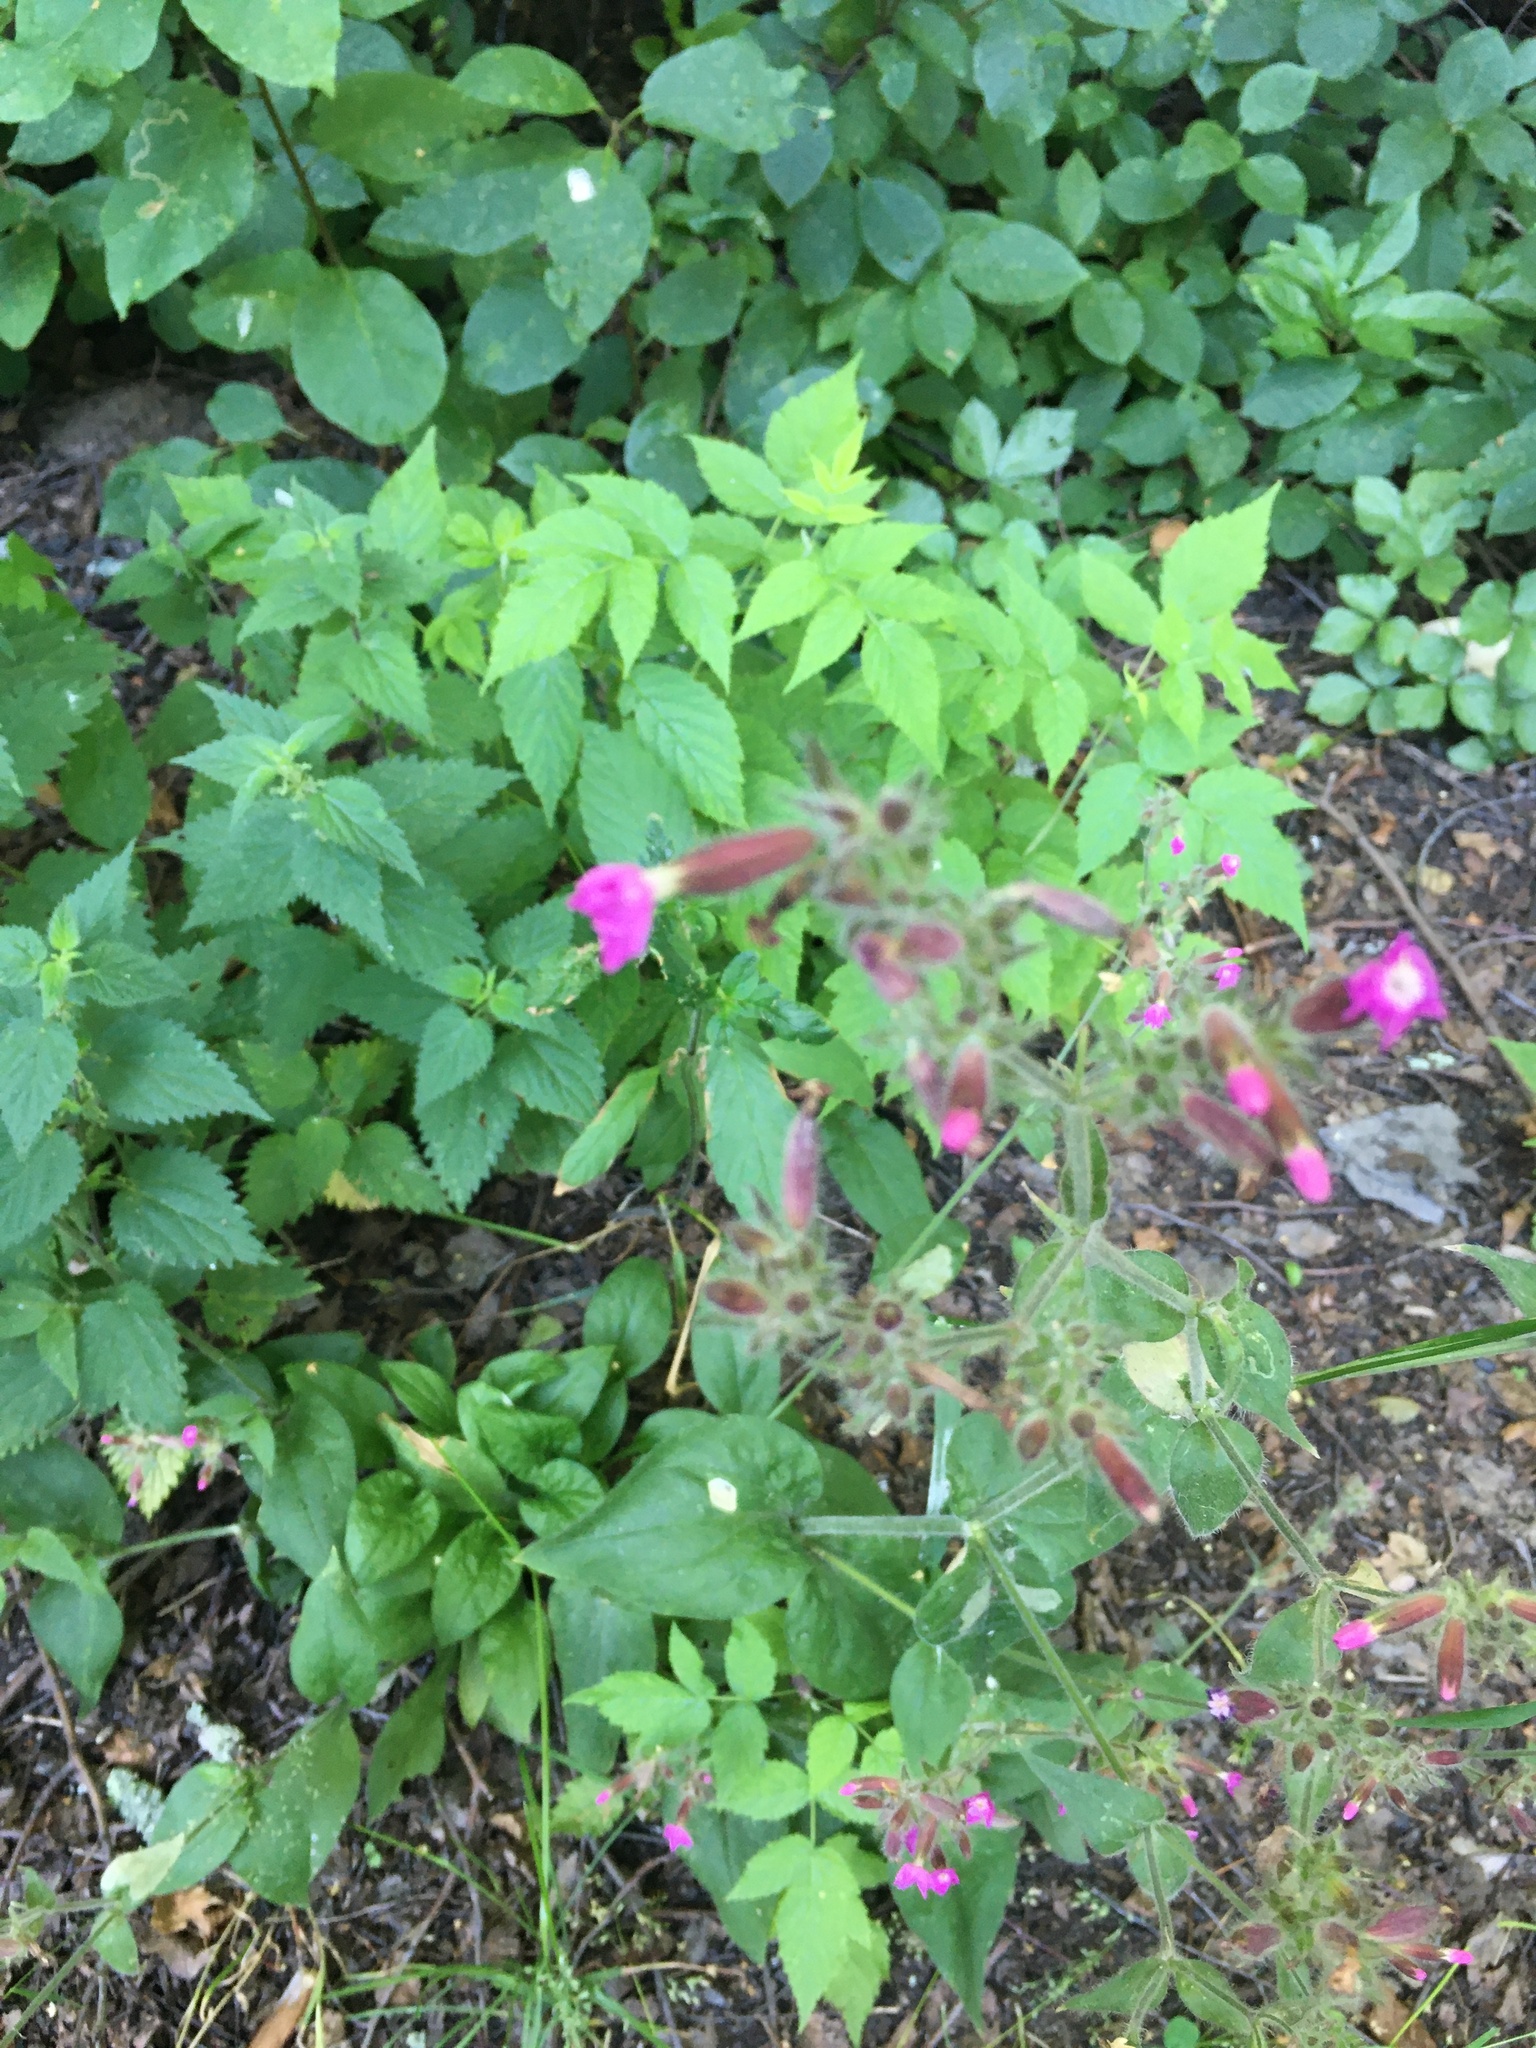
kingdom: Plantae
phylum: Tracheophyta
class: Magnoliopsida
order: Caryophyllales
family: Caryophyllaceae
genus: Silene
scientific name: Silene dioica
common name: Red campion
